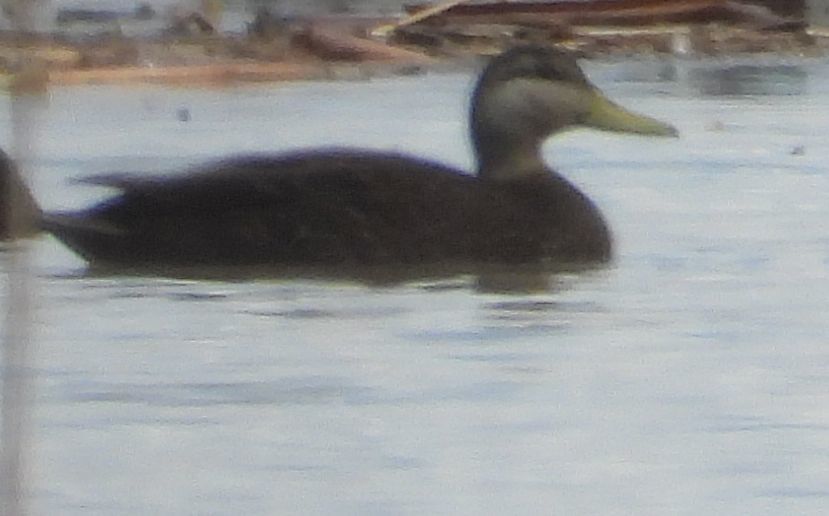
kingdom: Animalia
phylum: Chordata
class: Aves
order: Anseriformes
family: Anatidae
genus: Anas
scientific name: Anas rubripes
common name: American black duck
